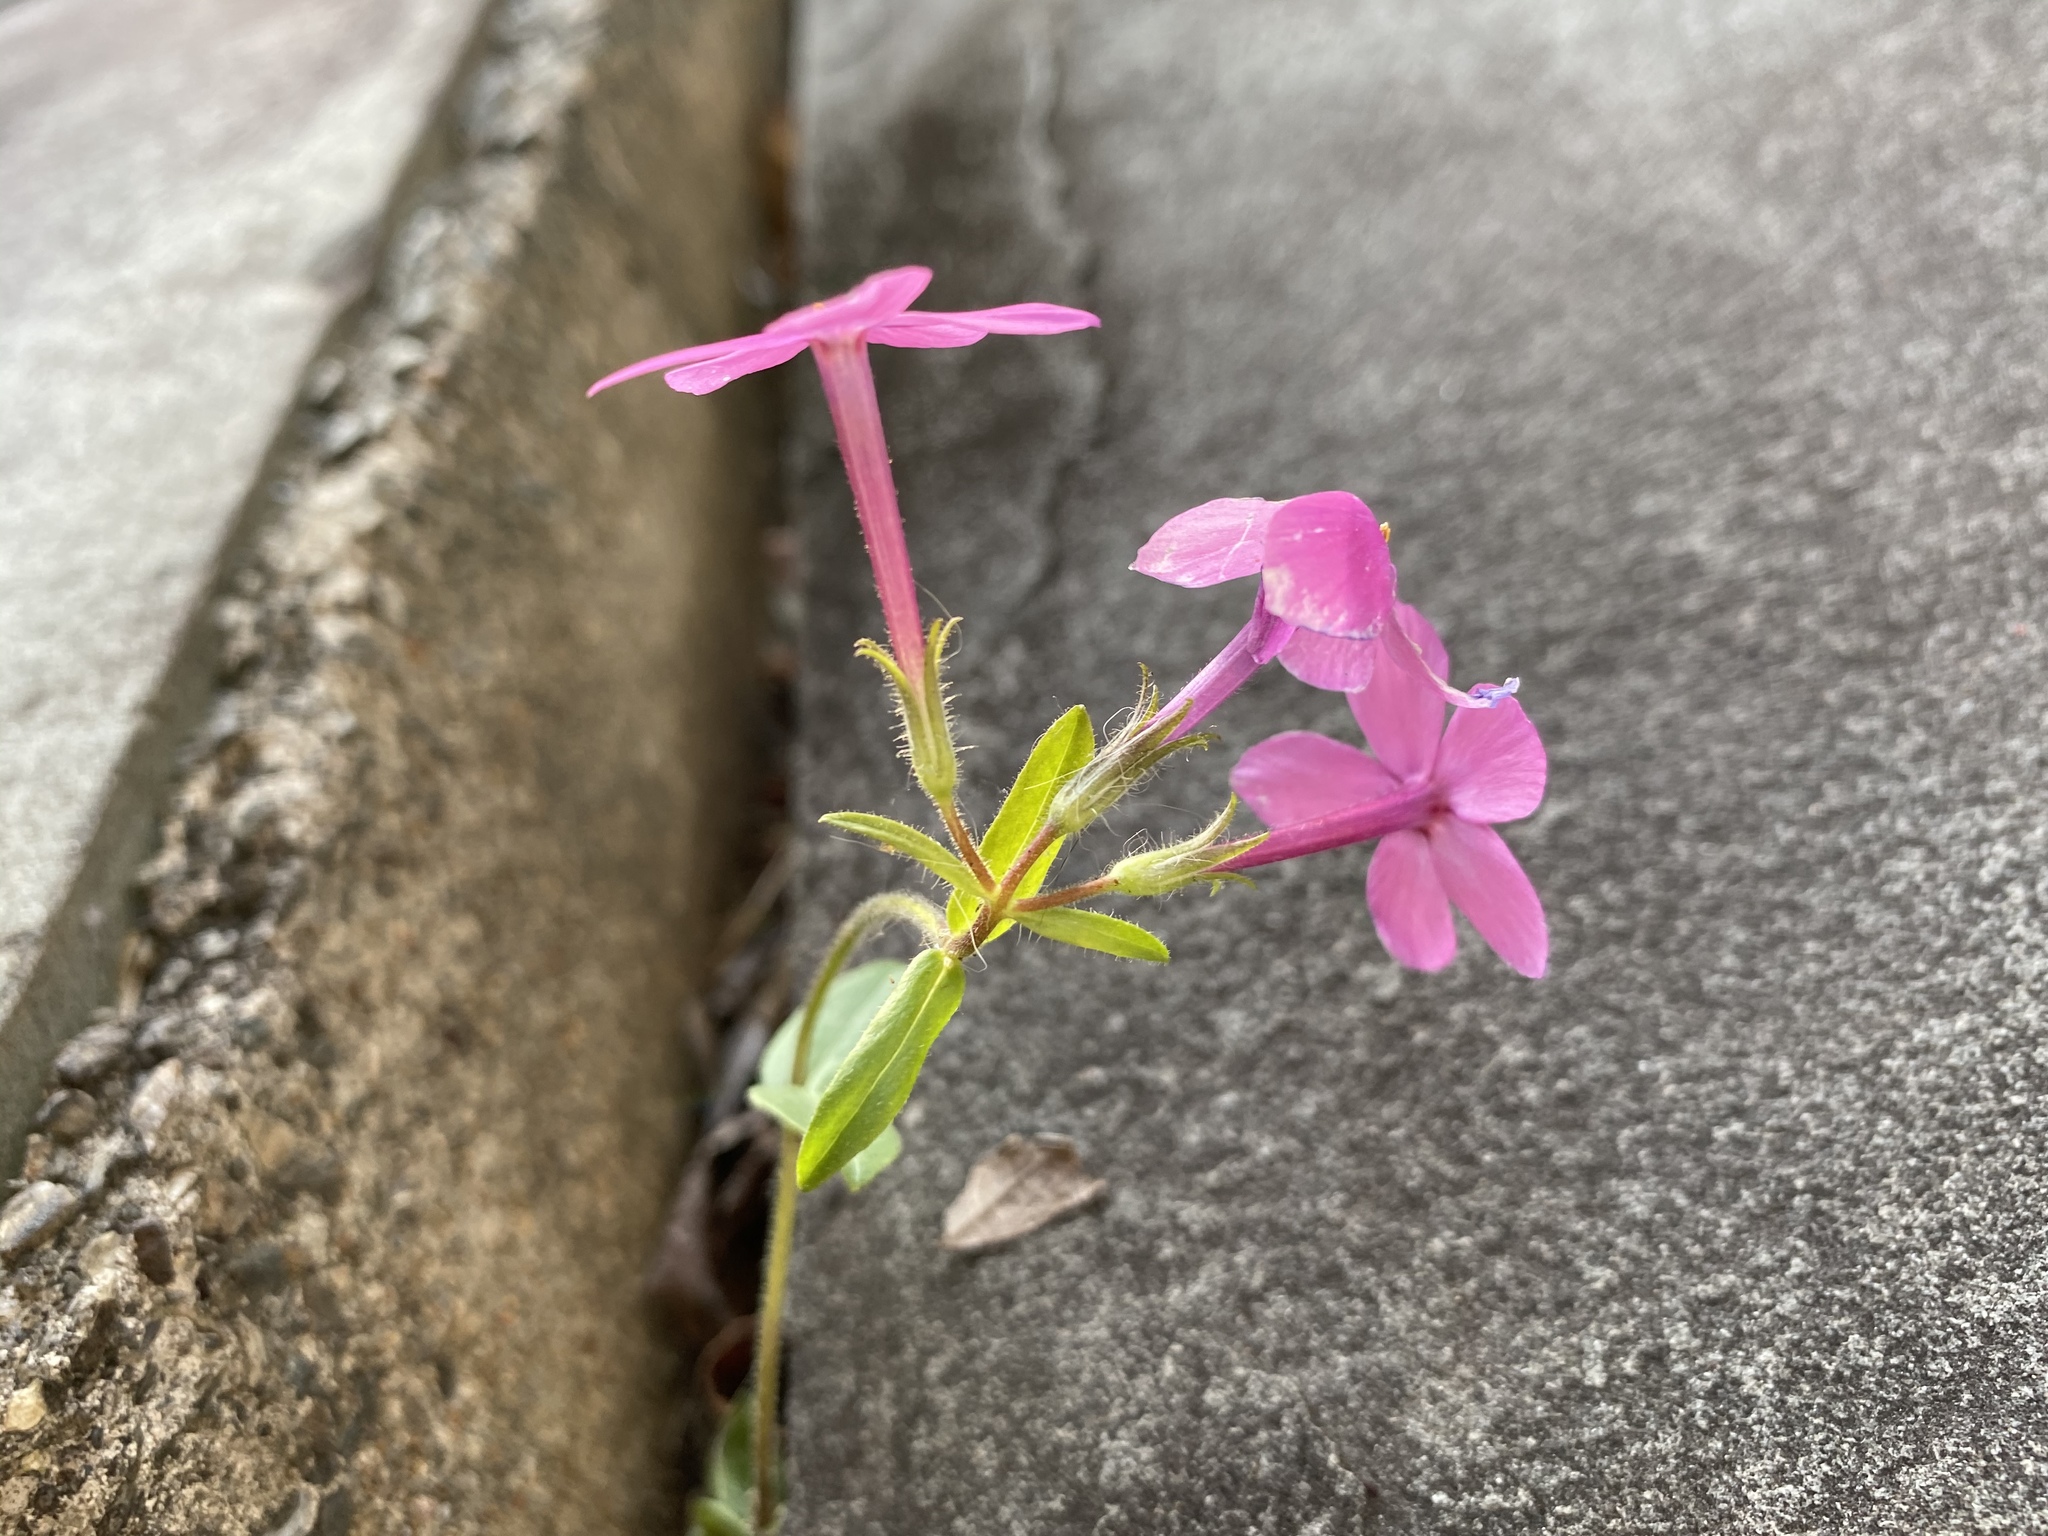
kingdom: Plantae
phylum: Tracheophyta
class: Magnoliopsida
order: Ericales
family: Polemoniaceae
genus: Phlox
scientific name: Phlox stolonifera
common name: Creeping phlox
